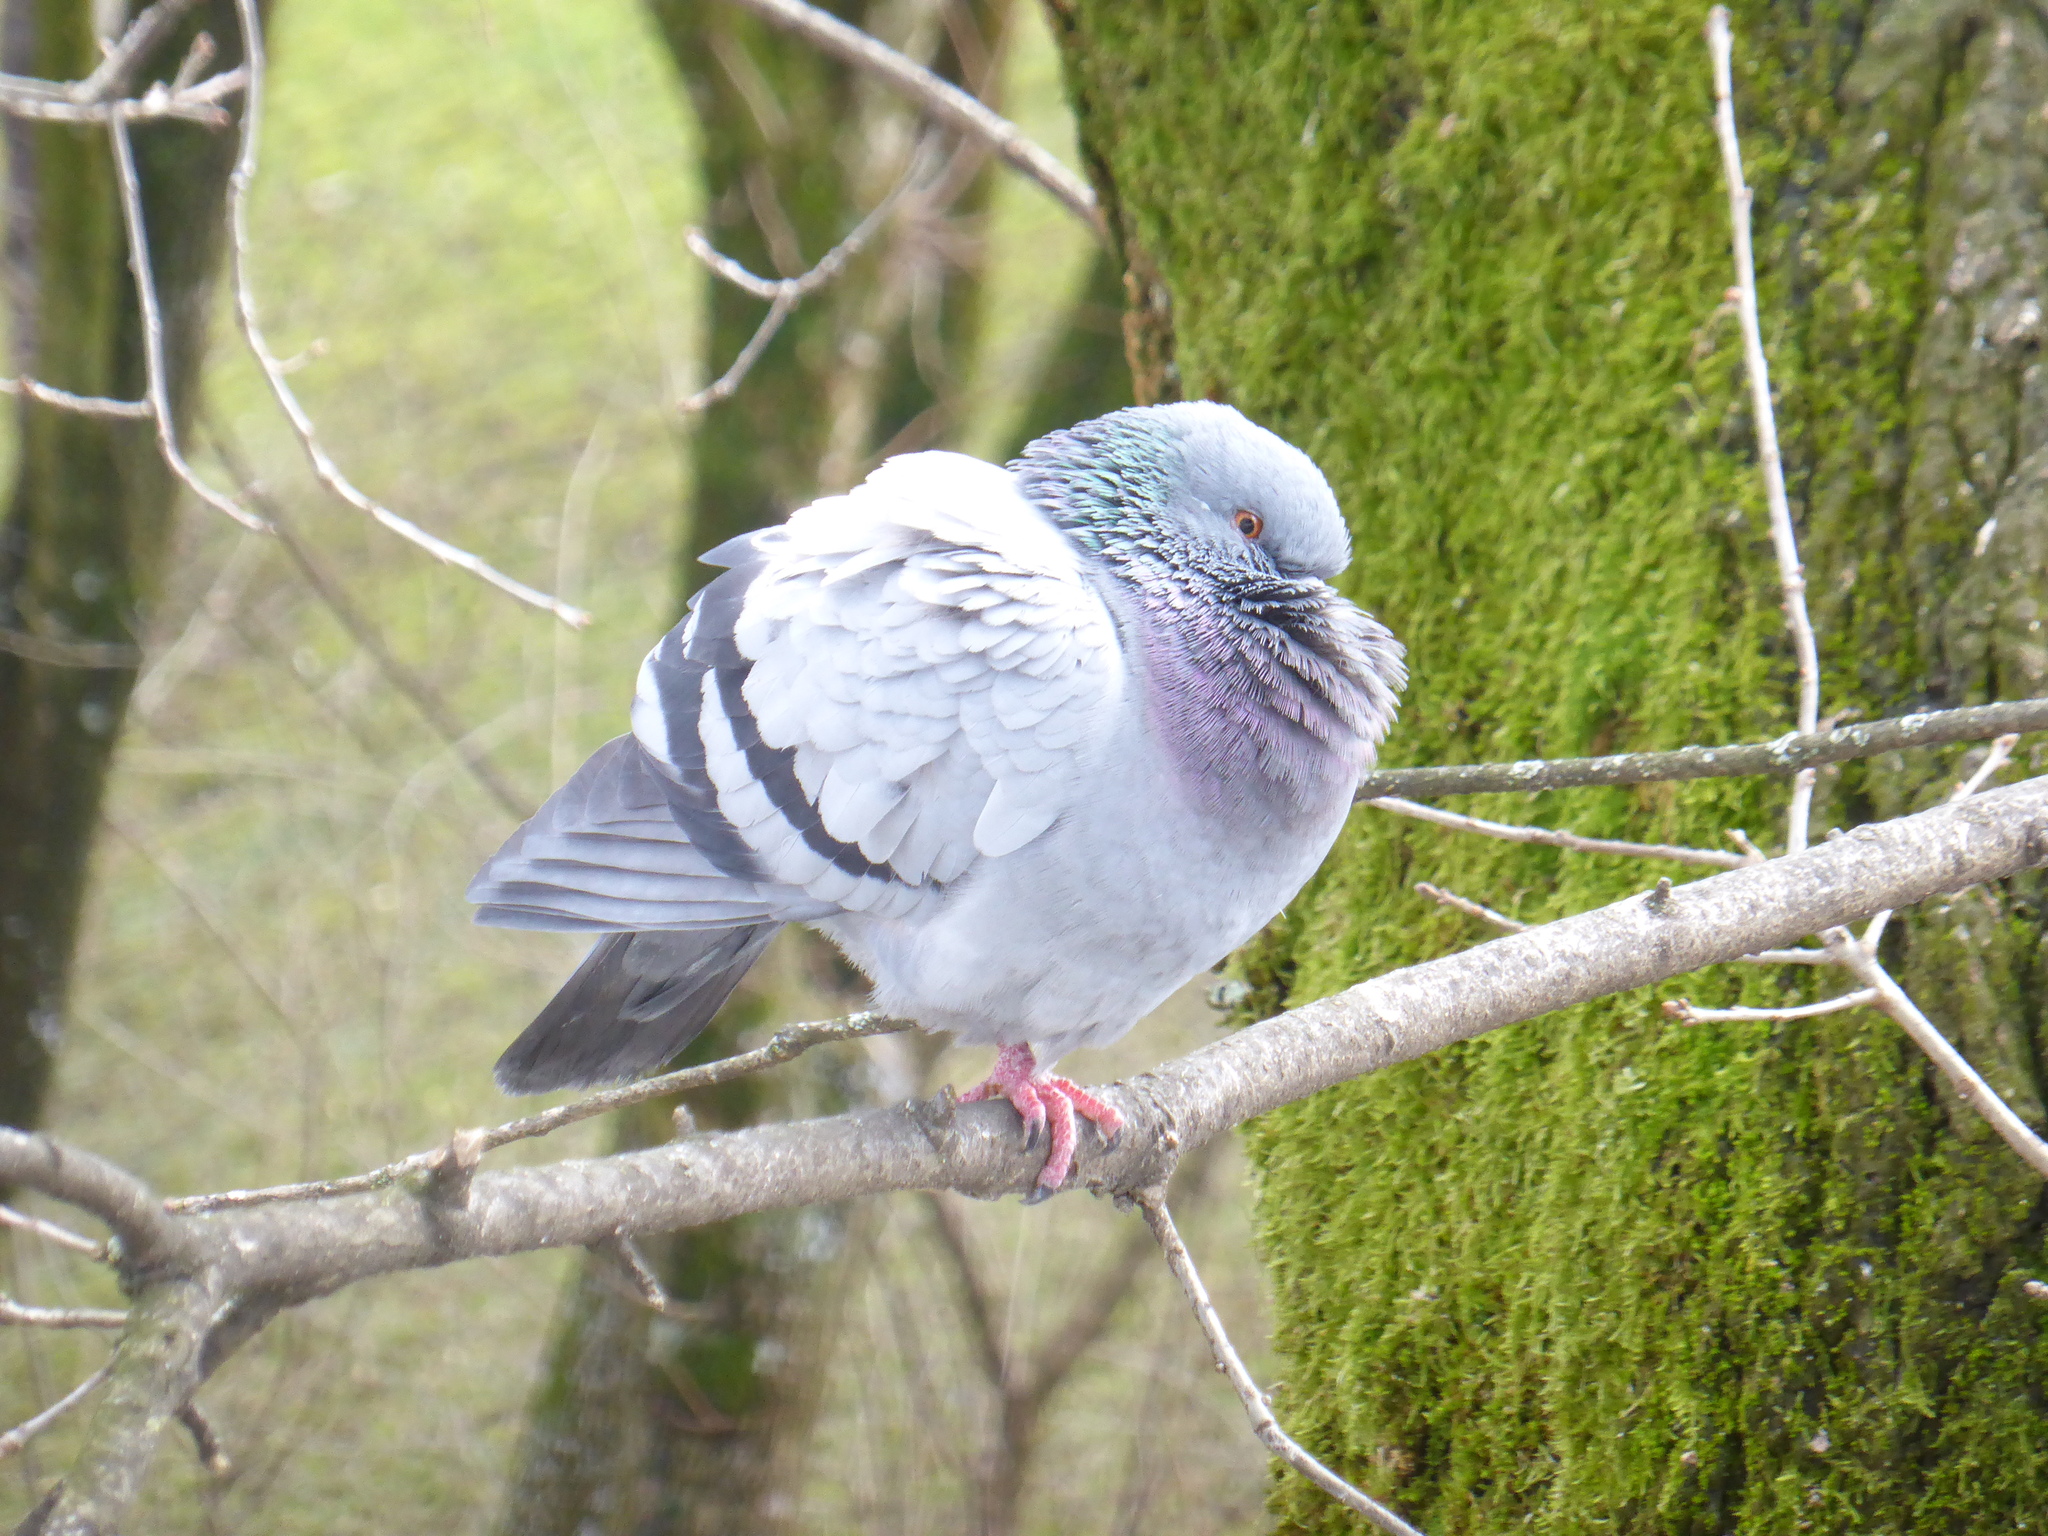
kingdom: Animalia
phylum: Chordata
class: Aves
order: Columbiformes
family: Columbidae
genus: Columba
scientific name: Columba livia
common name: Rock pigeon
